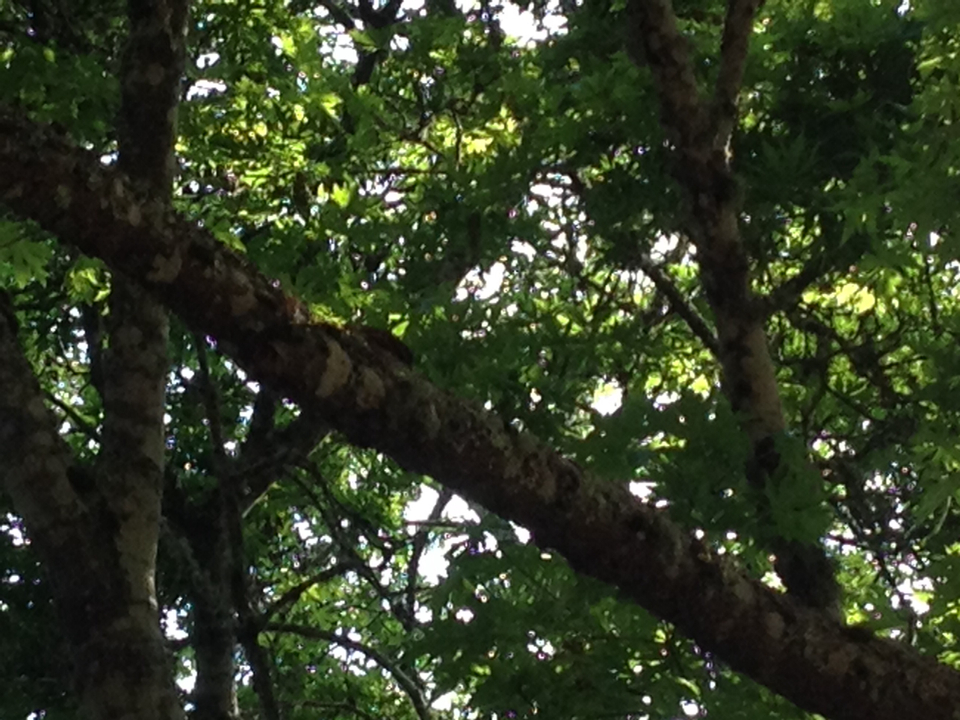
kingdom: Animalia
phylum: Chordata
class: Aves
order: Passeriformes
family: Certhiidae
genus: Certhia
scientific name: Certhia americana
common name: Brown creeper
